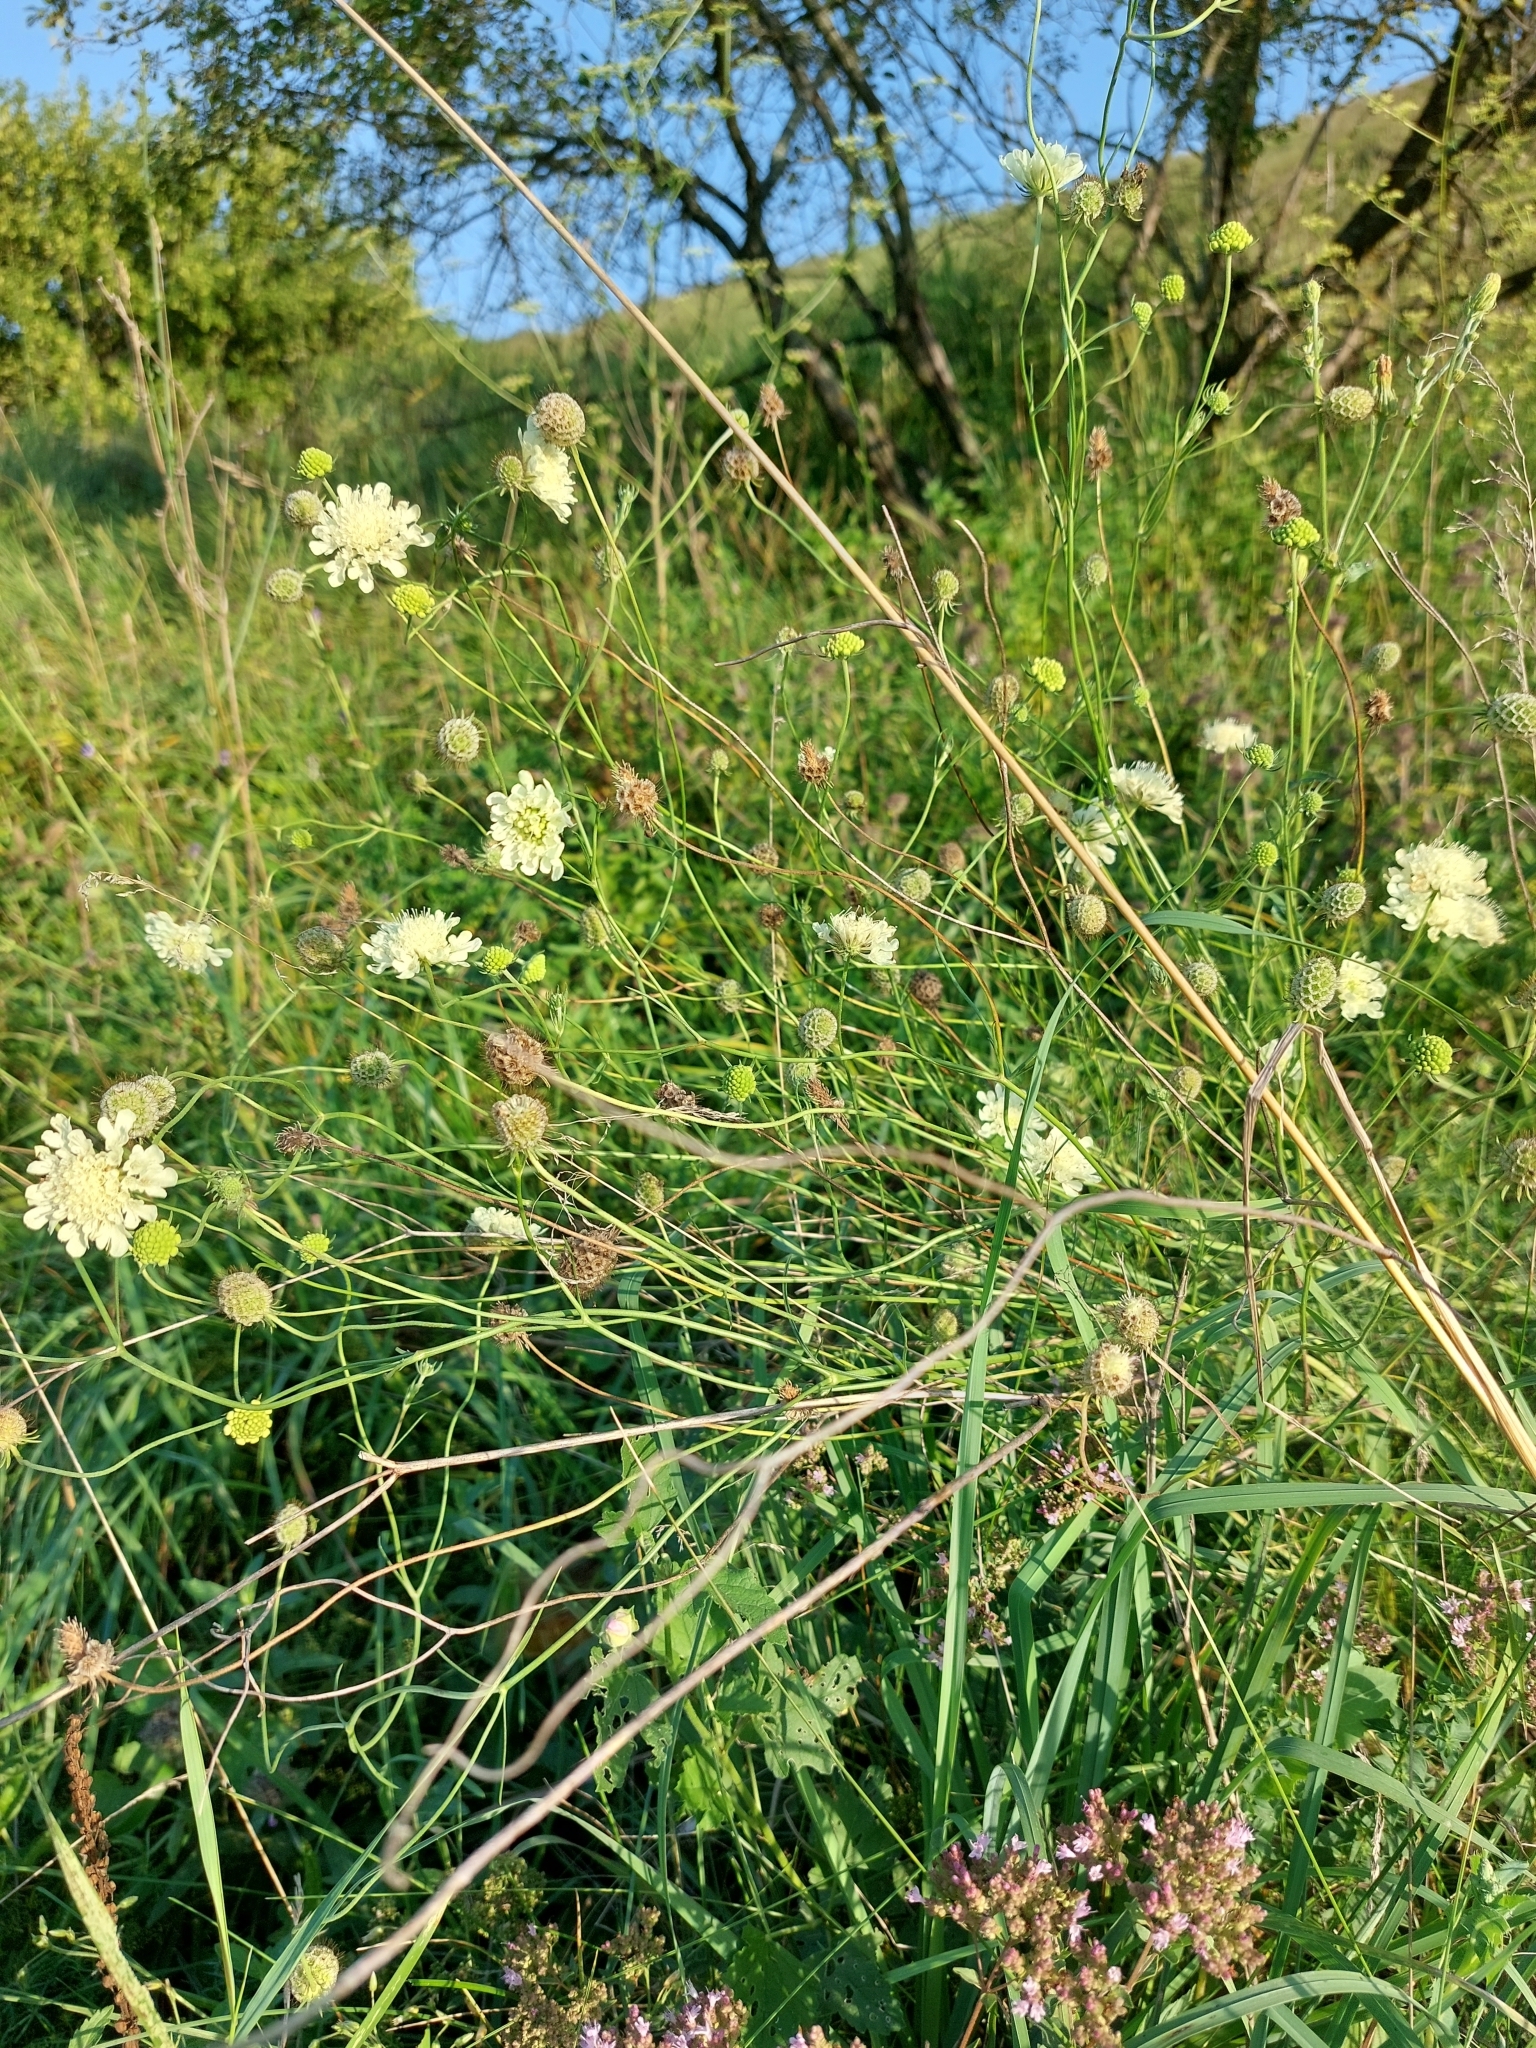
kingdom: Plantae
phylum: Tracheophyta
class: Magnoliopsida
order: Dipsacales
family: Caprifoliaceae
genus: Scabiosa
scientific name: Scabiosa ochroleuca
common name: Cream pincushions
